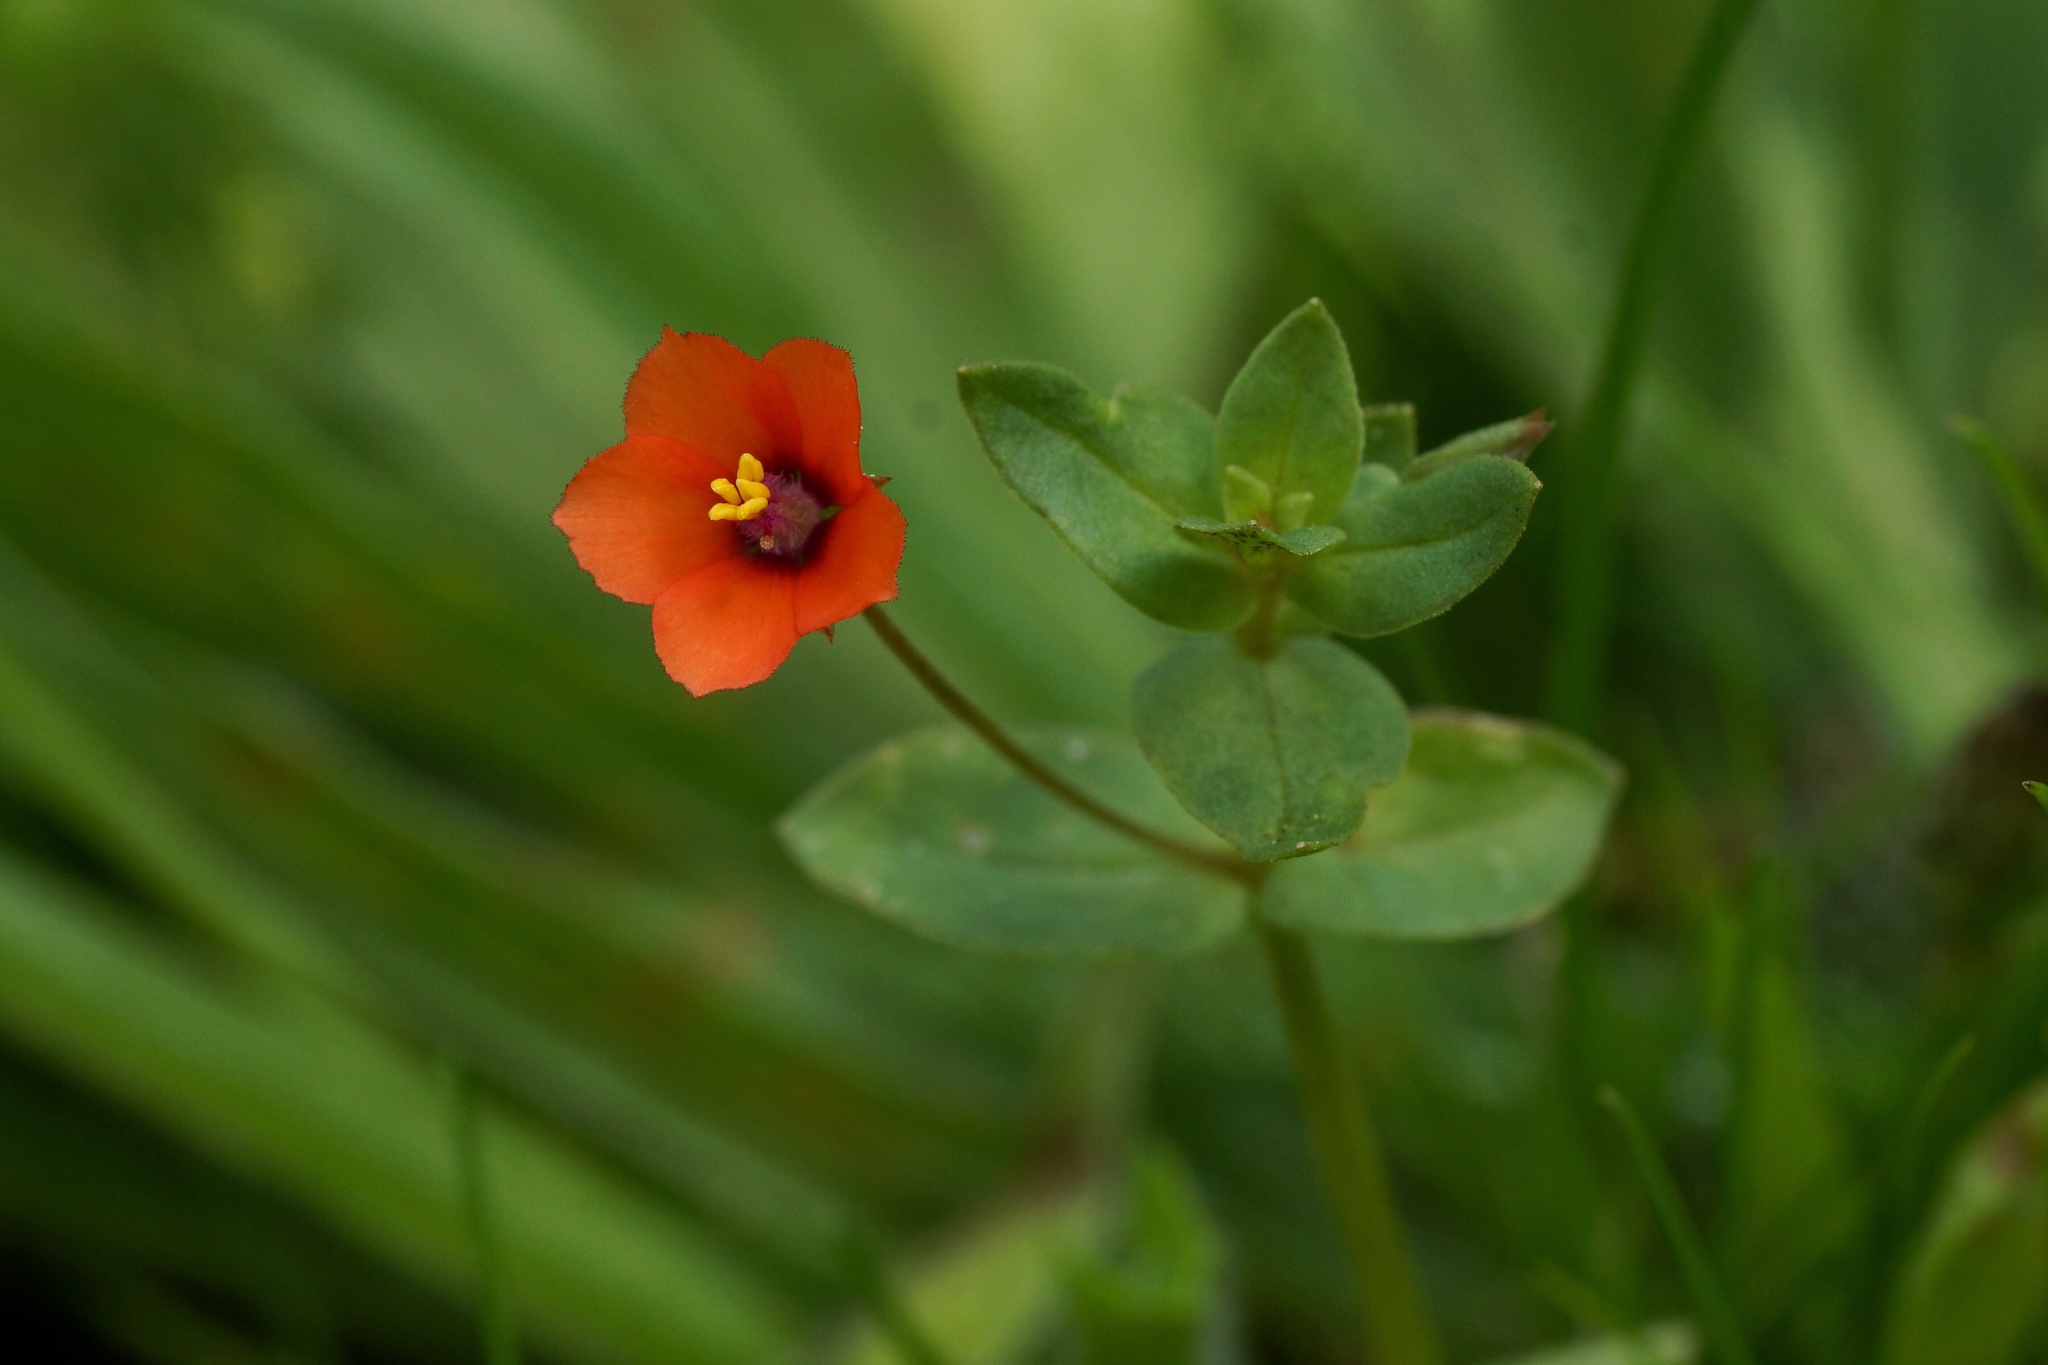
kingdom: Plantae
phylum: Tracheophyta
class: Magnoliopsida
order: Ericales
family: Primulaceae
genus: Lysimachia
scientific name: Lysimachia arvensis
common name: Scarlet pimpernel
